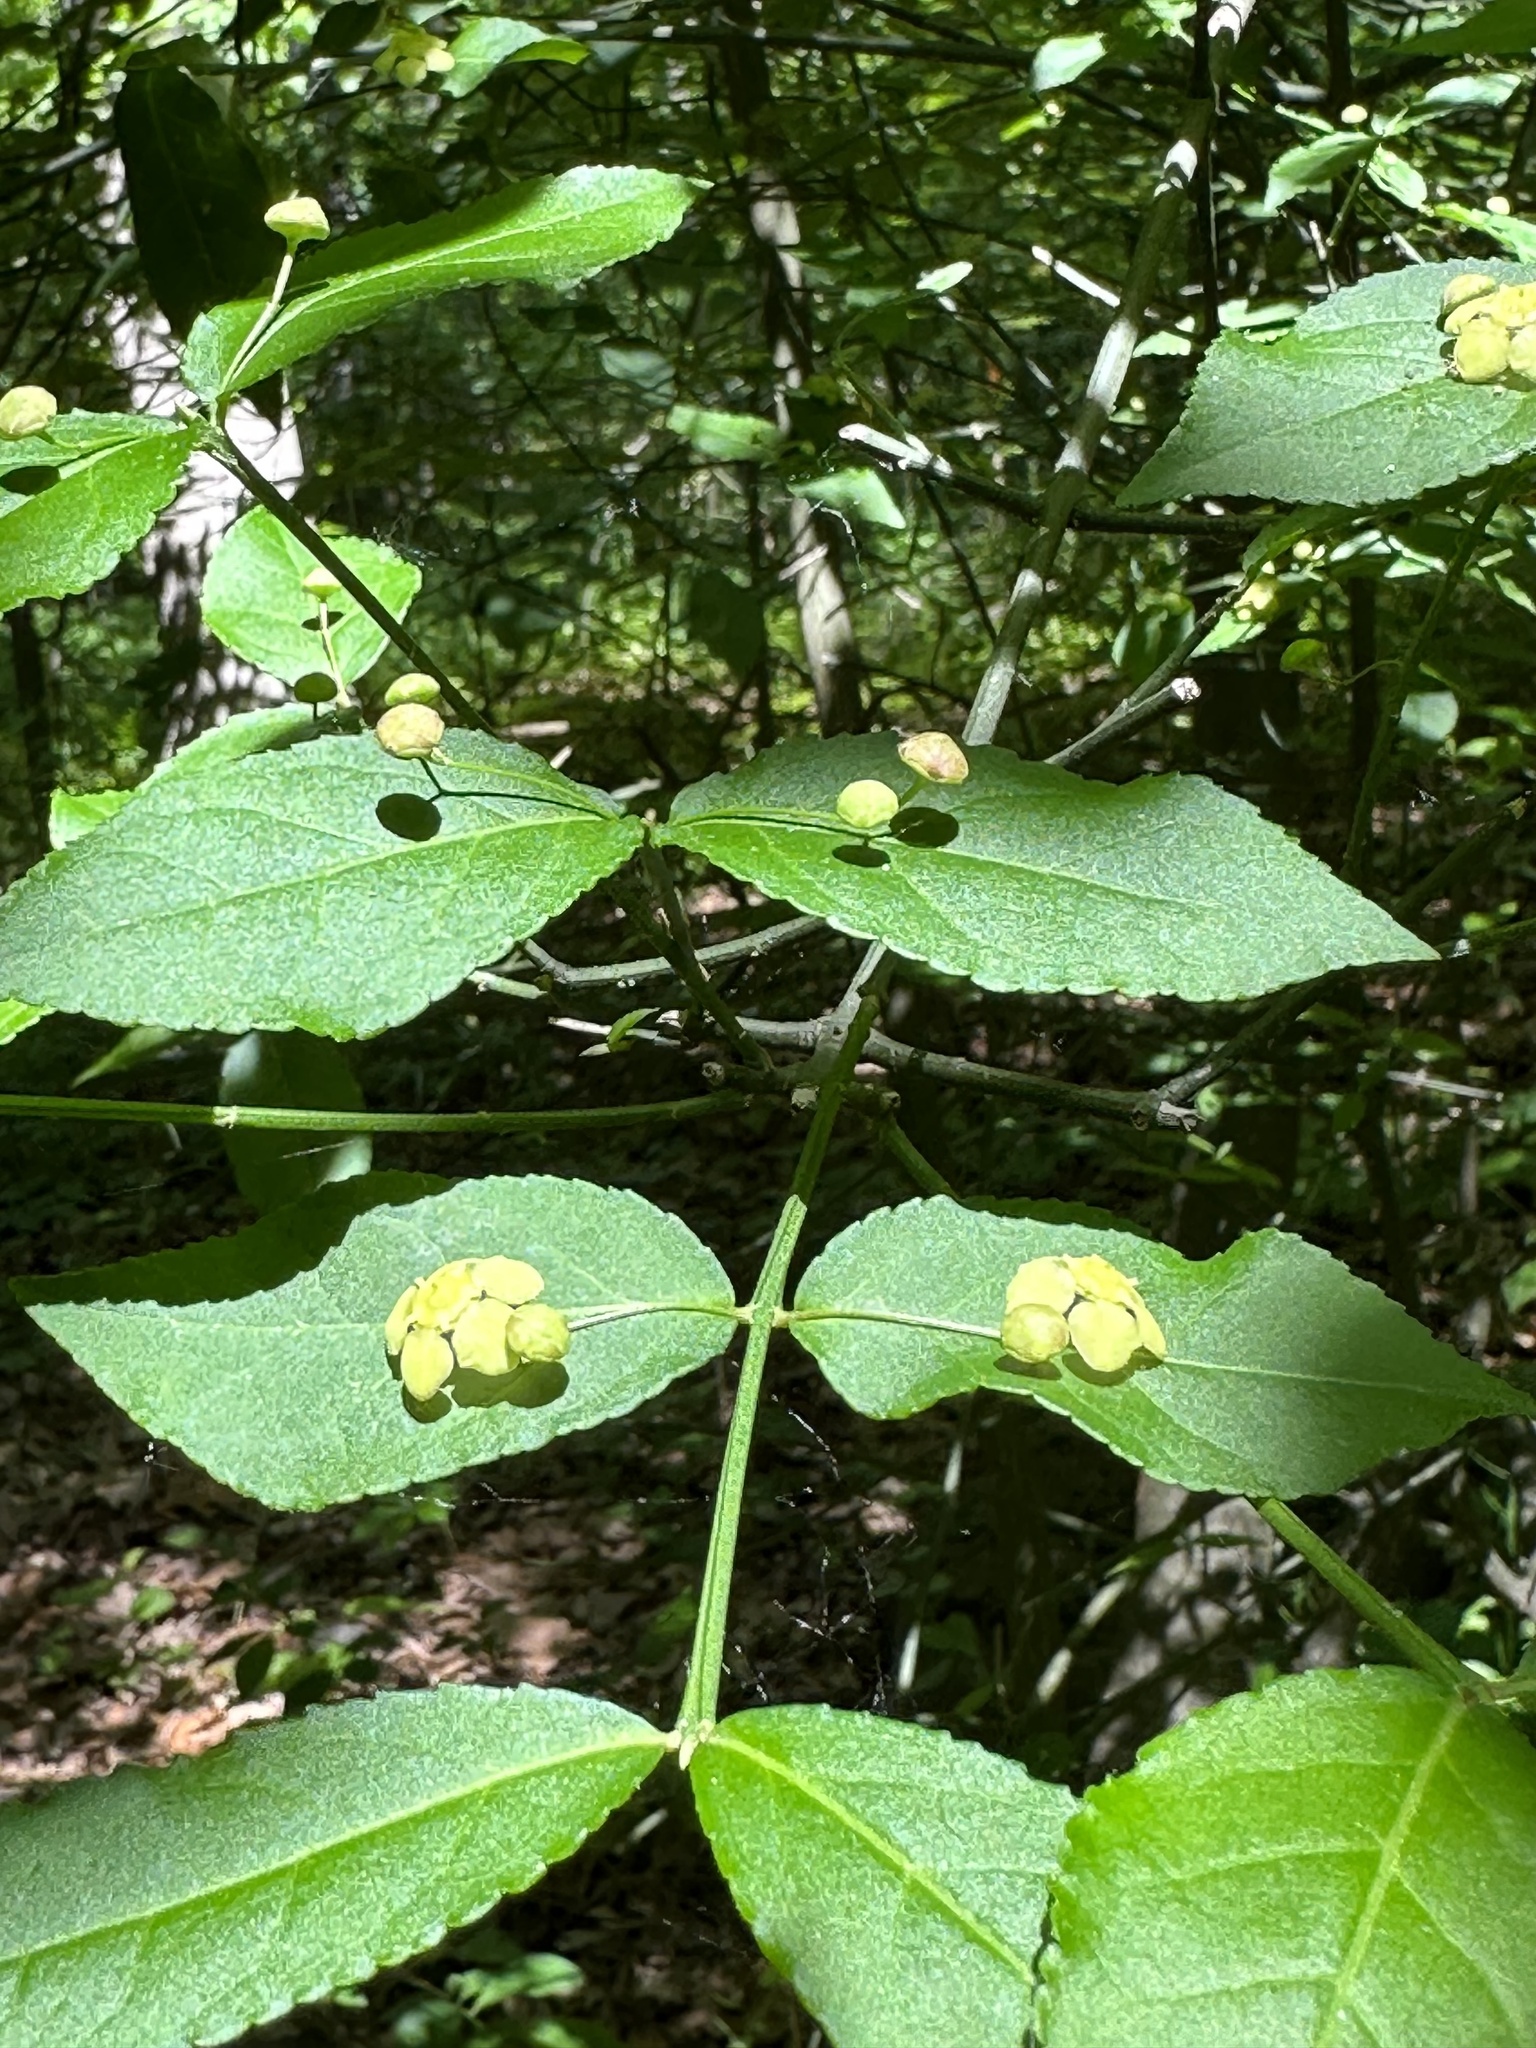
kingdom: Plantae
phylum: Tracheophyta
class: Magnoliopsida
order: Celastrales
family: Celastraceae
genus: Euonymus
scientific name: Euonymus americanus
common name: Bursting-heart
